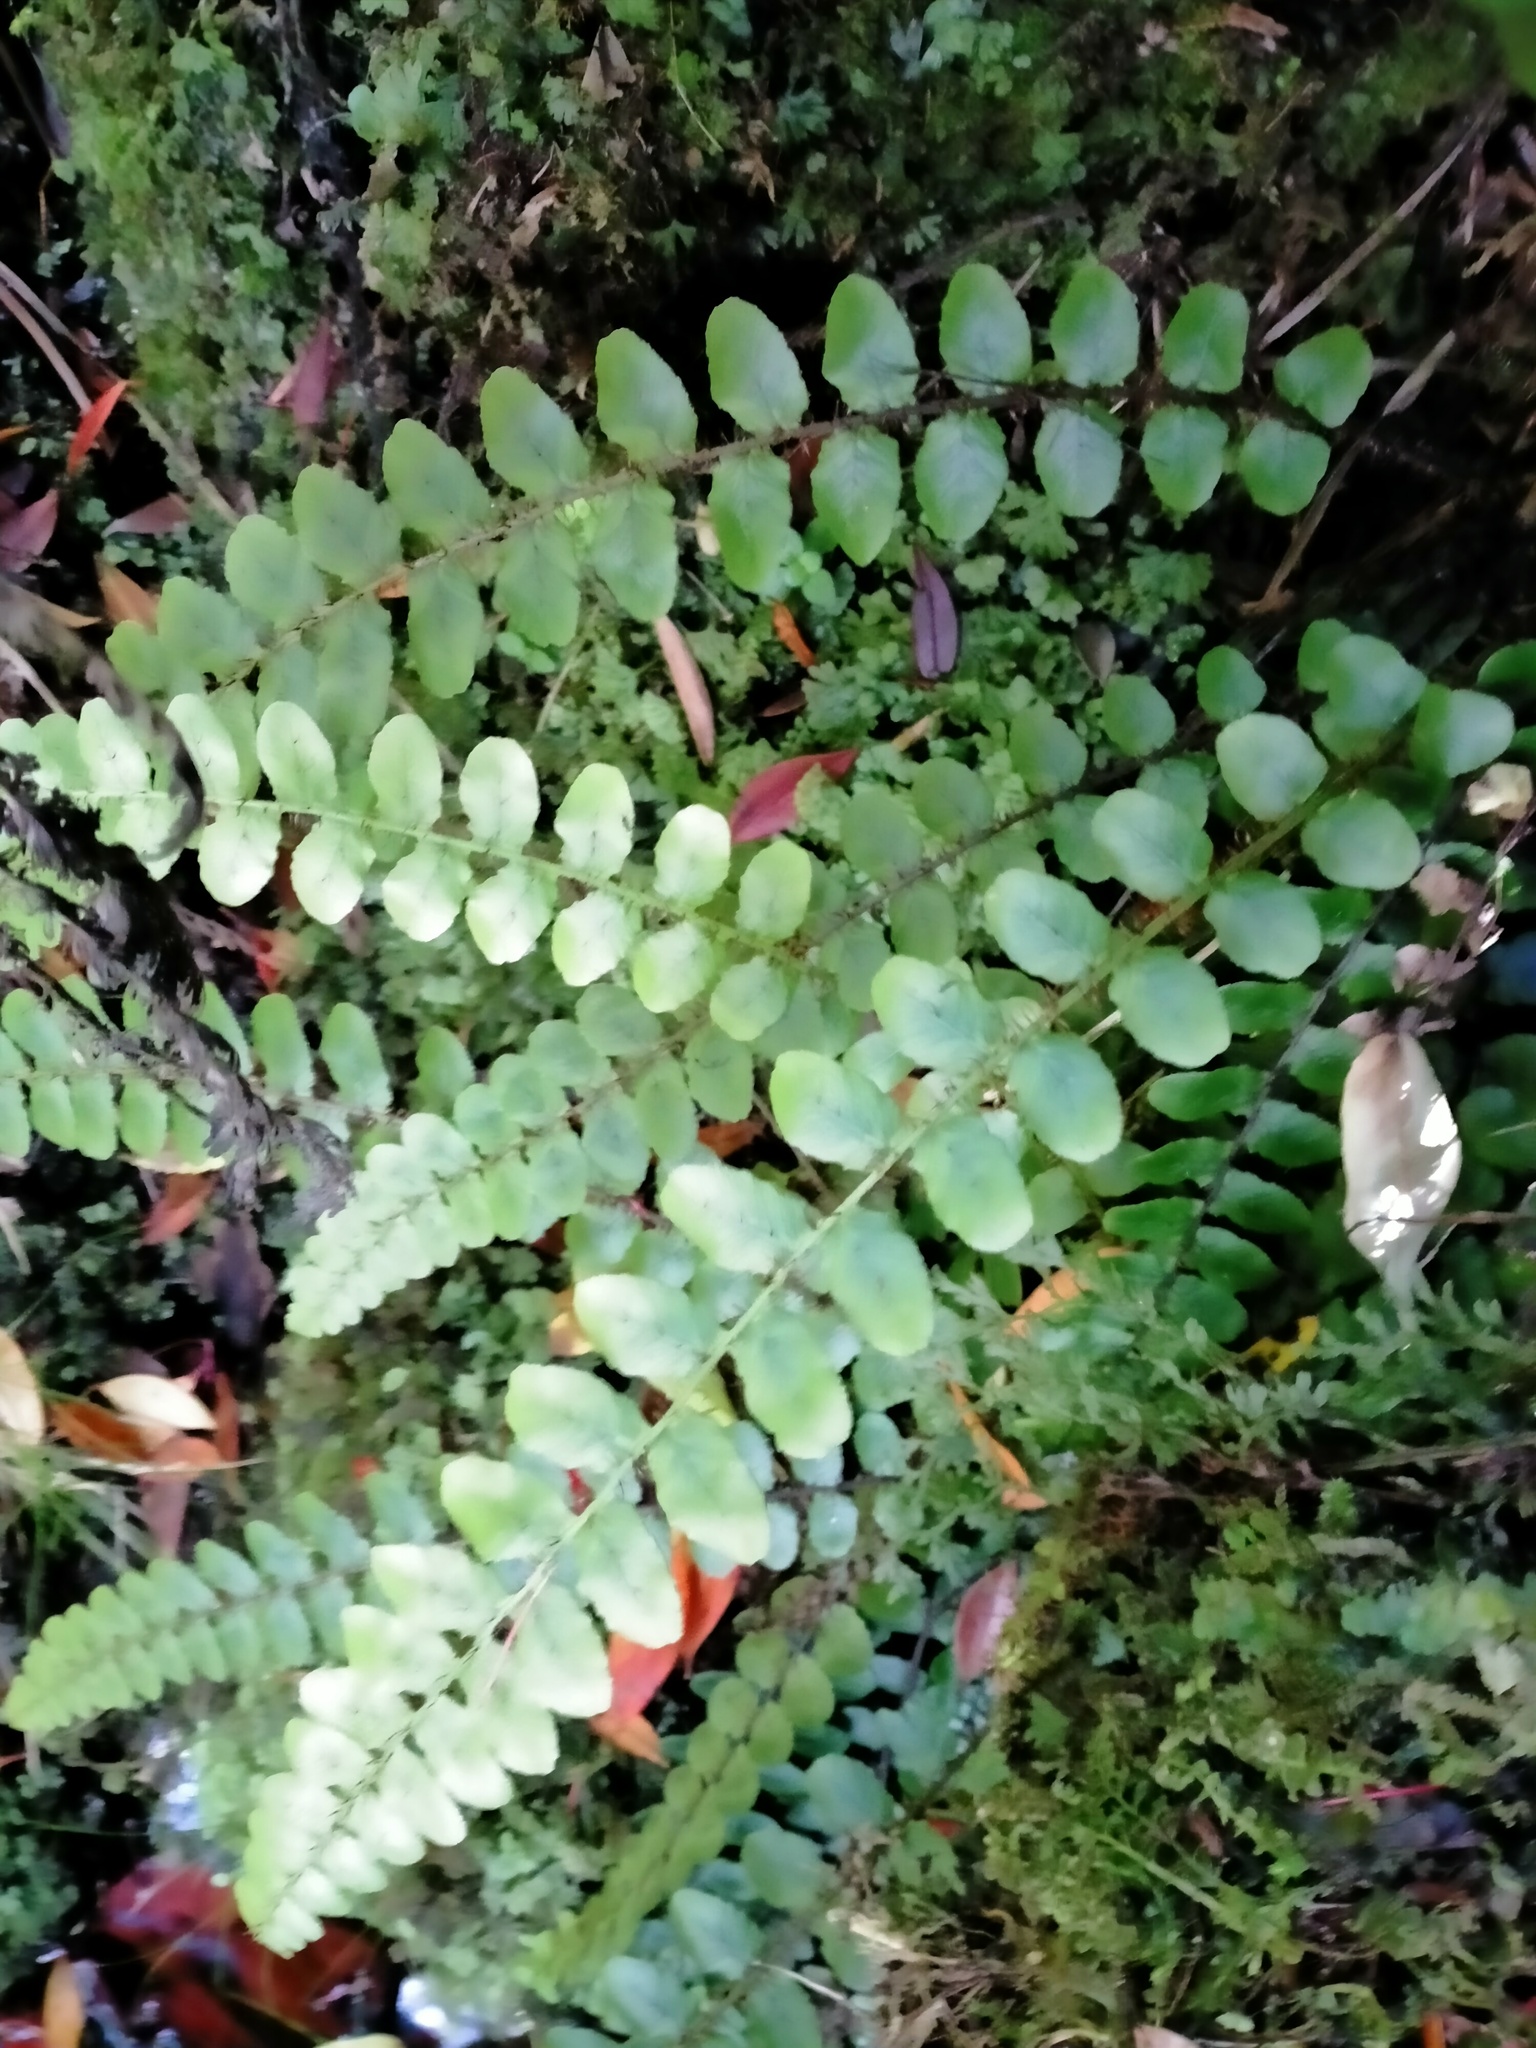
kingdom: Plantae
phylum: Tracheophyta
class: Polypodiopsida
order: Polypodiales
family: Blechnaceae
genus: Cranfillia
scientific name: Cranfillia fluviatilis
